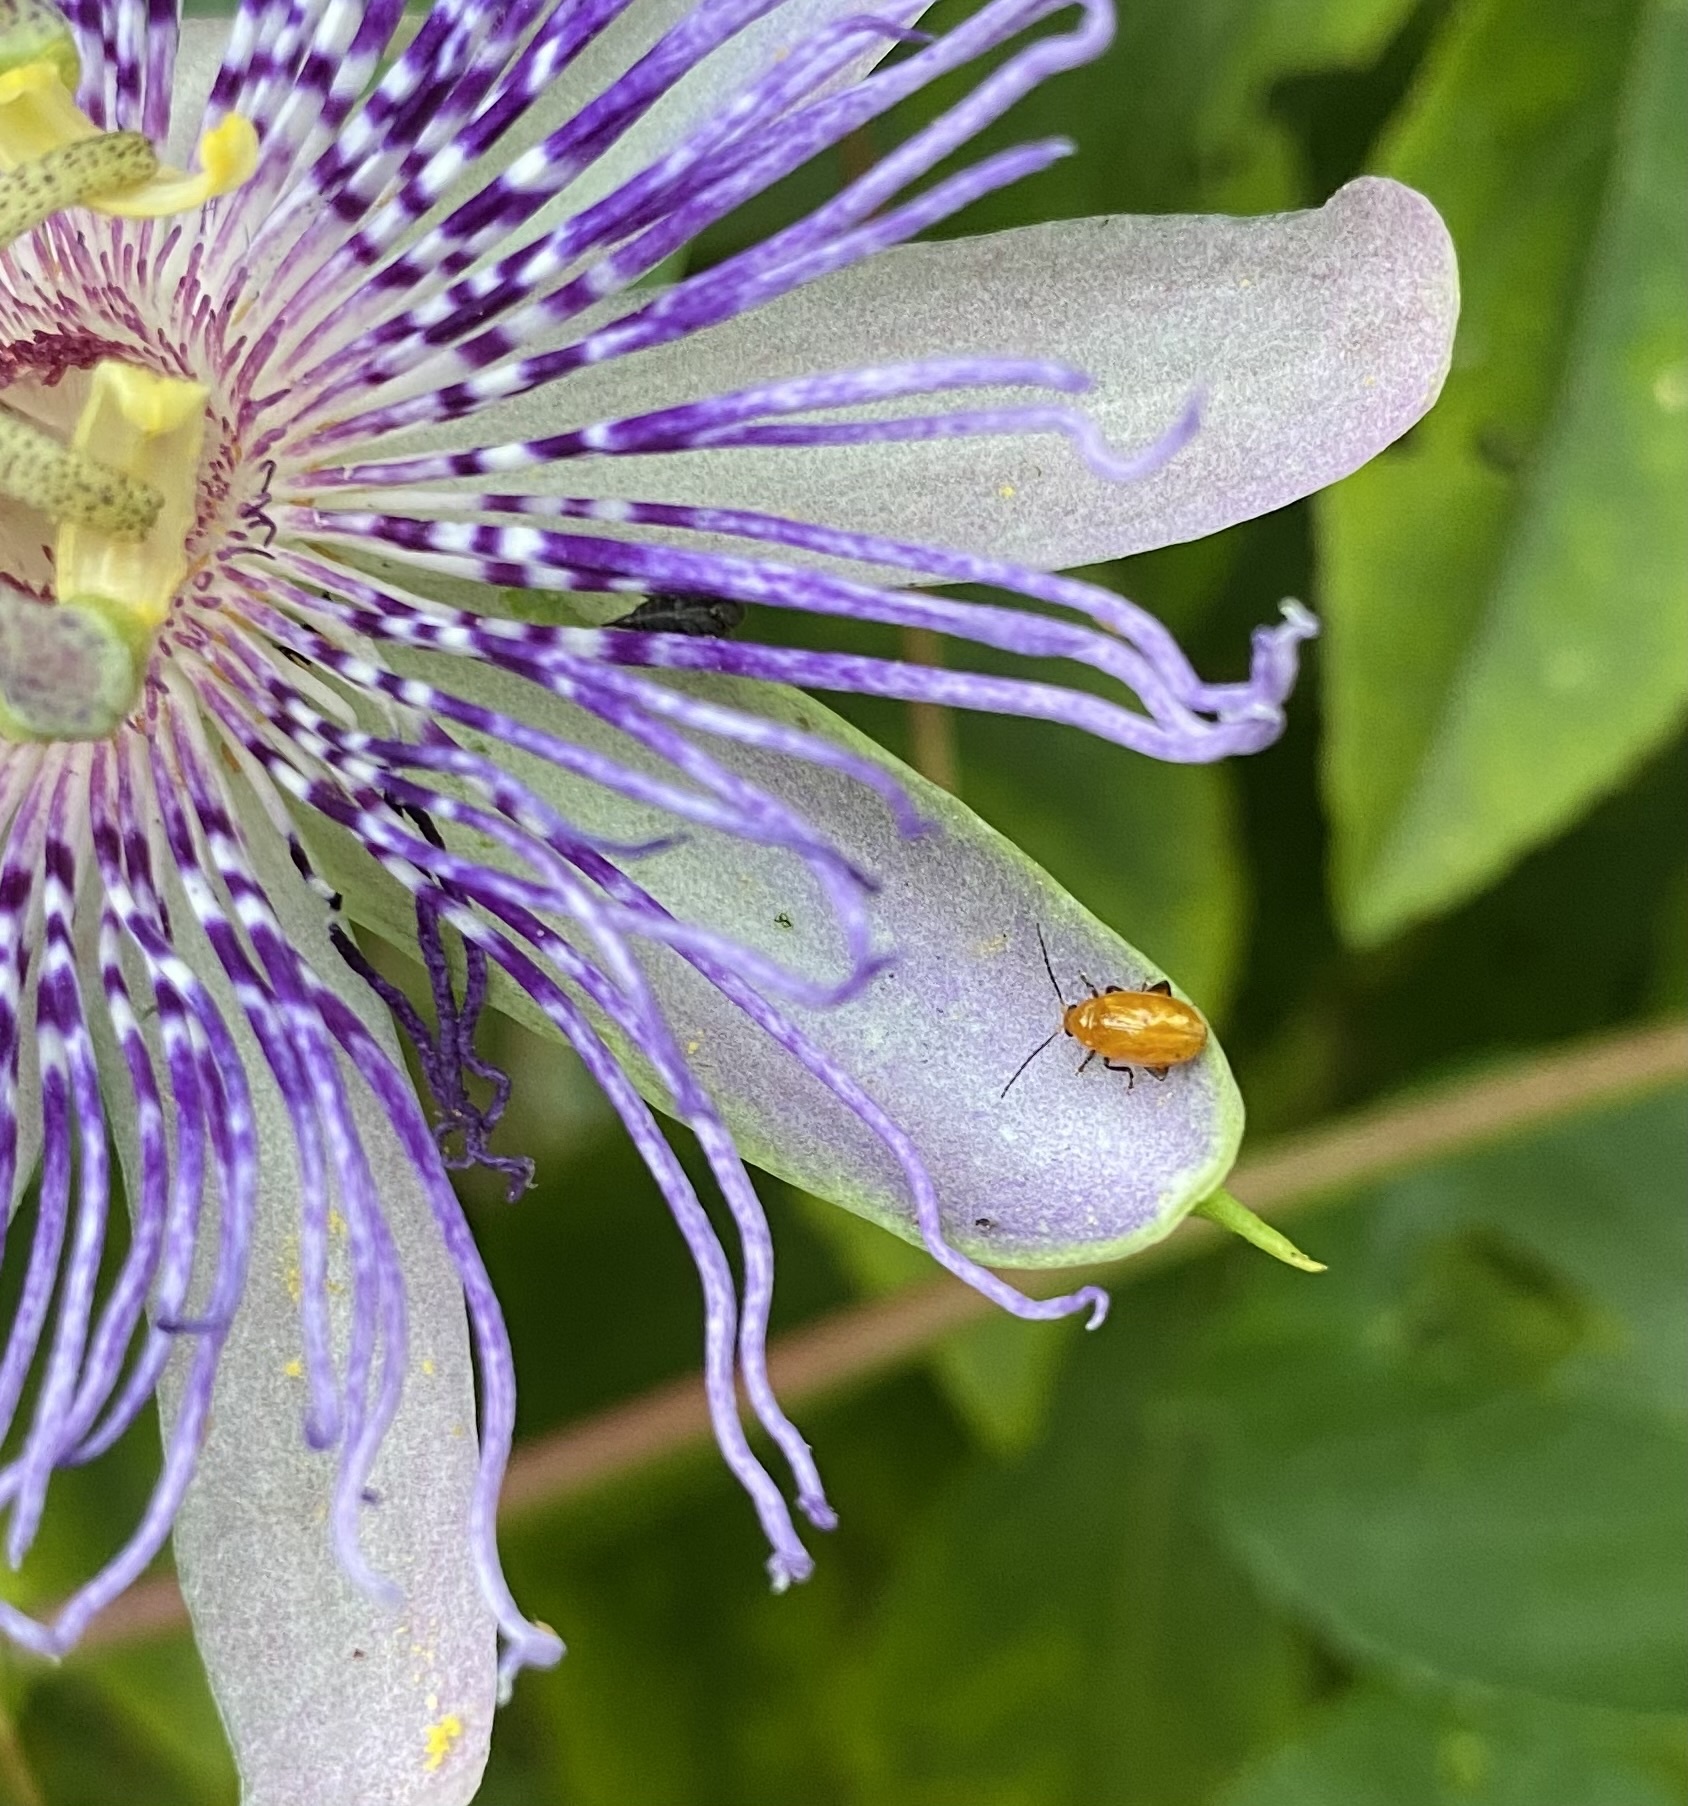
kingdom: Animalia
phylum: Arthropoda
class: Insecta
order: Coleoptera
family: Chrysomelidae
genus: Parchicola
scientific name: Parchicola tibialis
